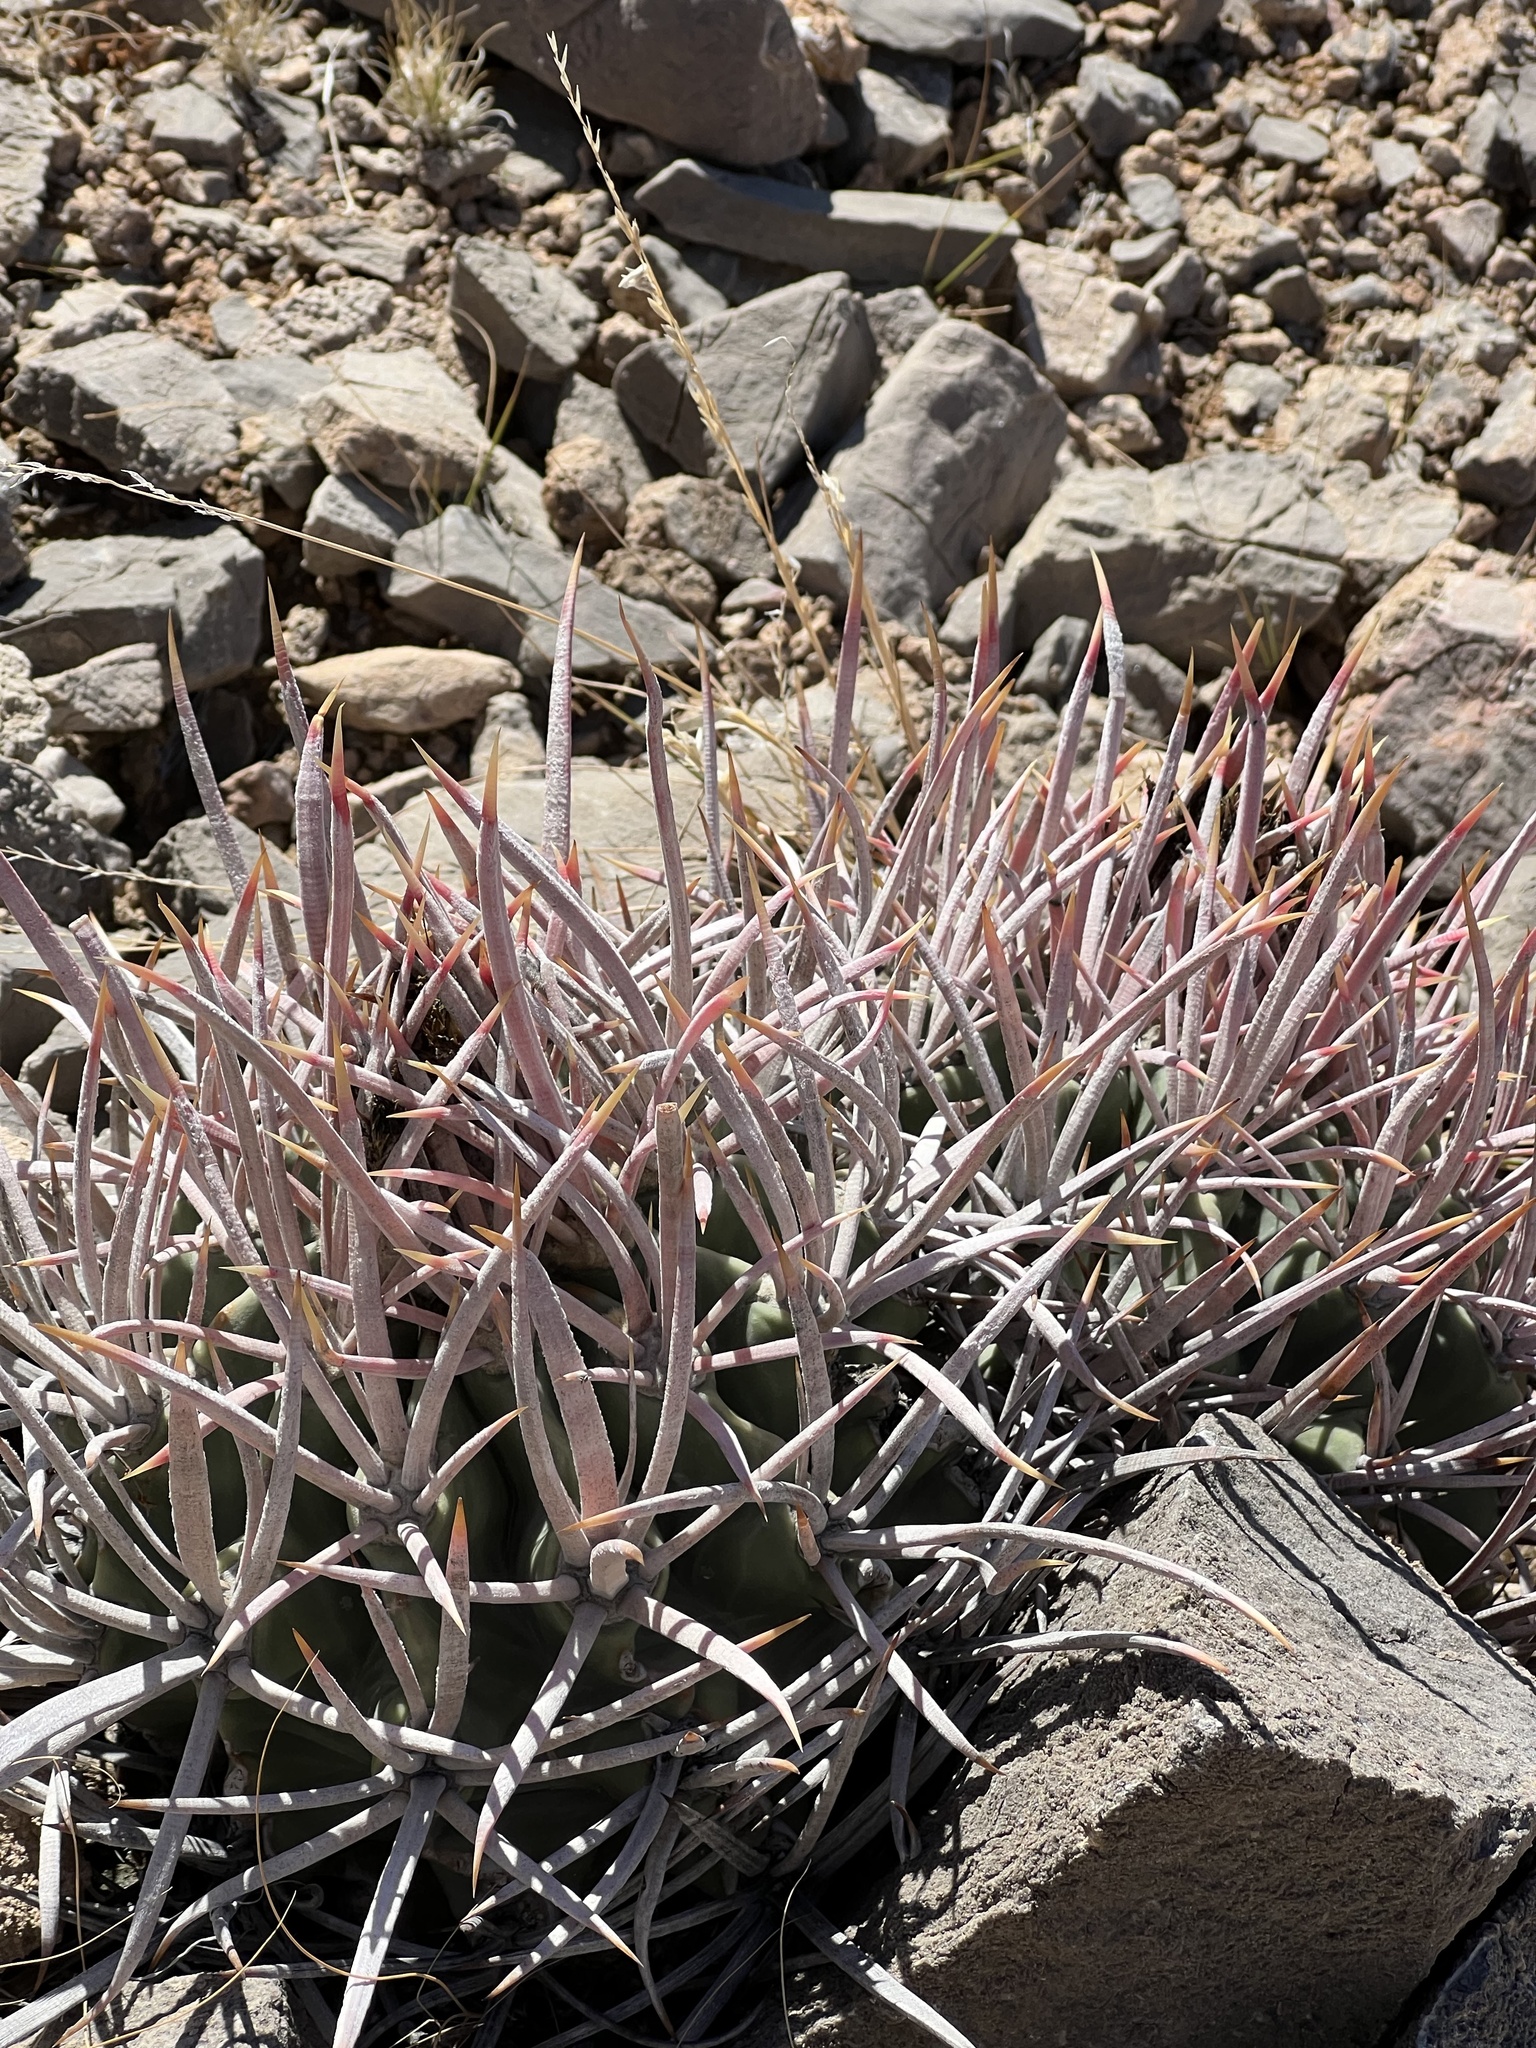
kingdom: Plantae
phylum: Tracheophyta
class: Magnoliopsida
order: Caryophyllales
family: Cactaceae
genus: Echinocactus
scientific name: Echinocactus polycephalus
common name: Cottontop cactus
